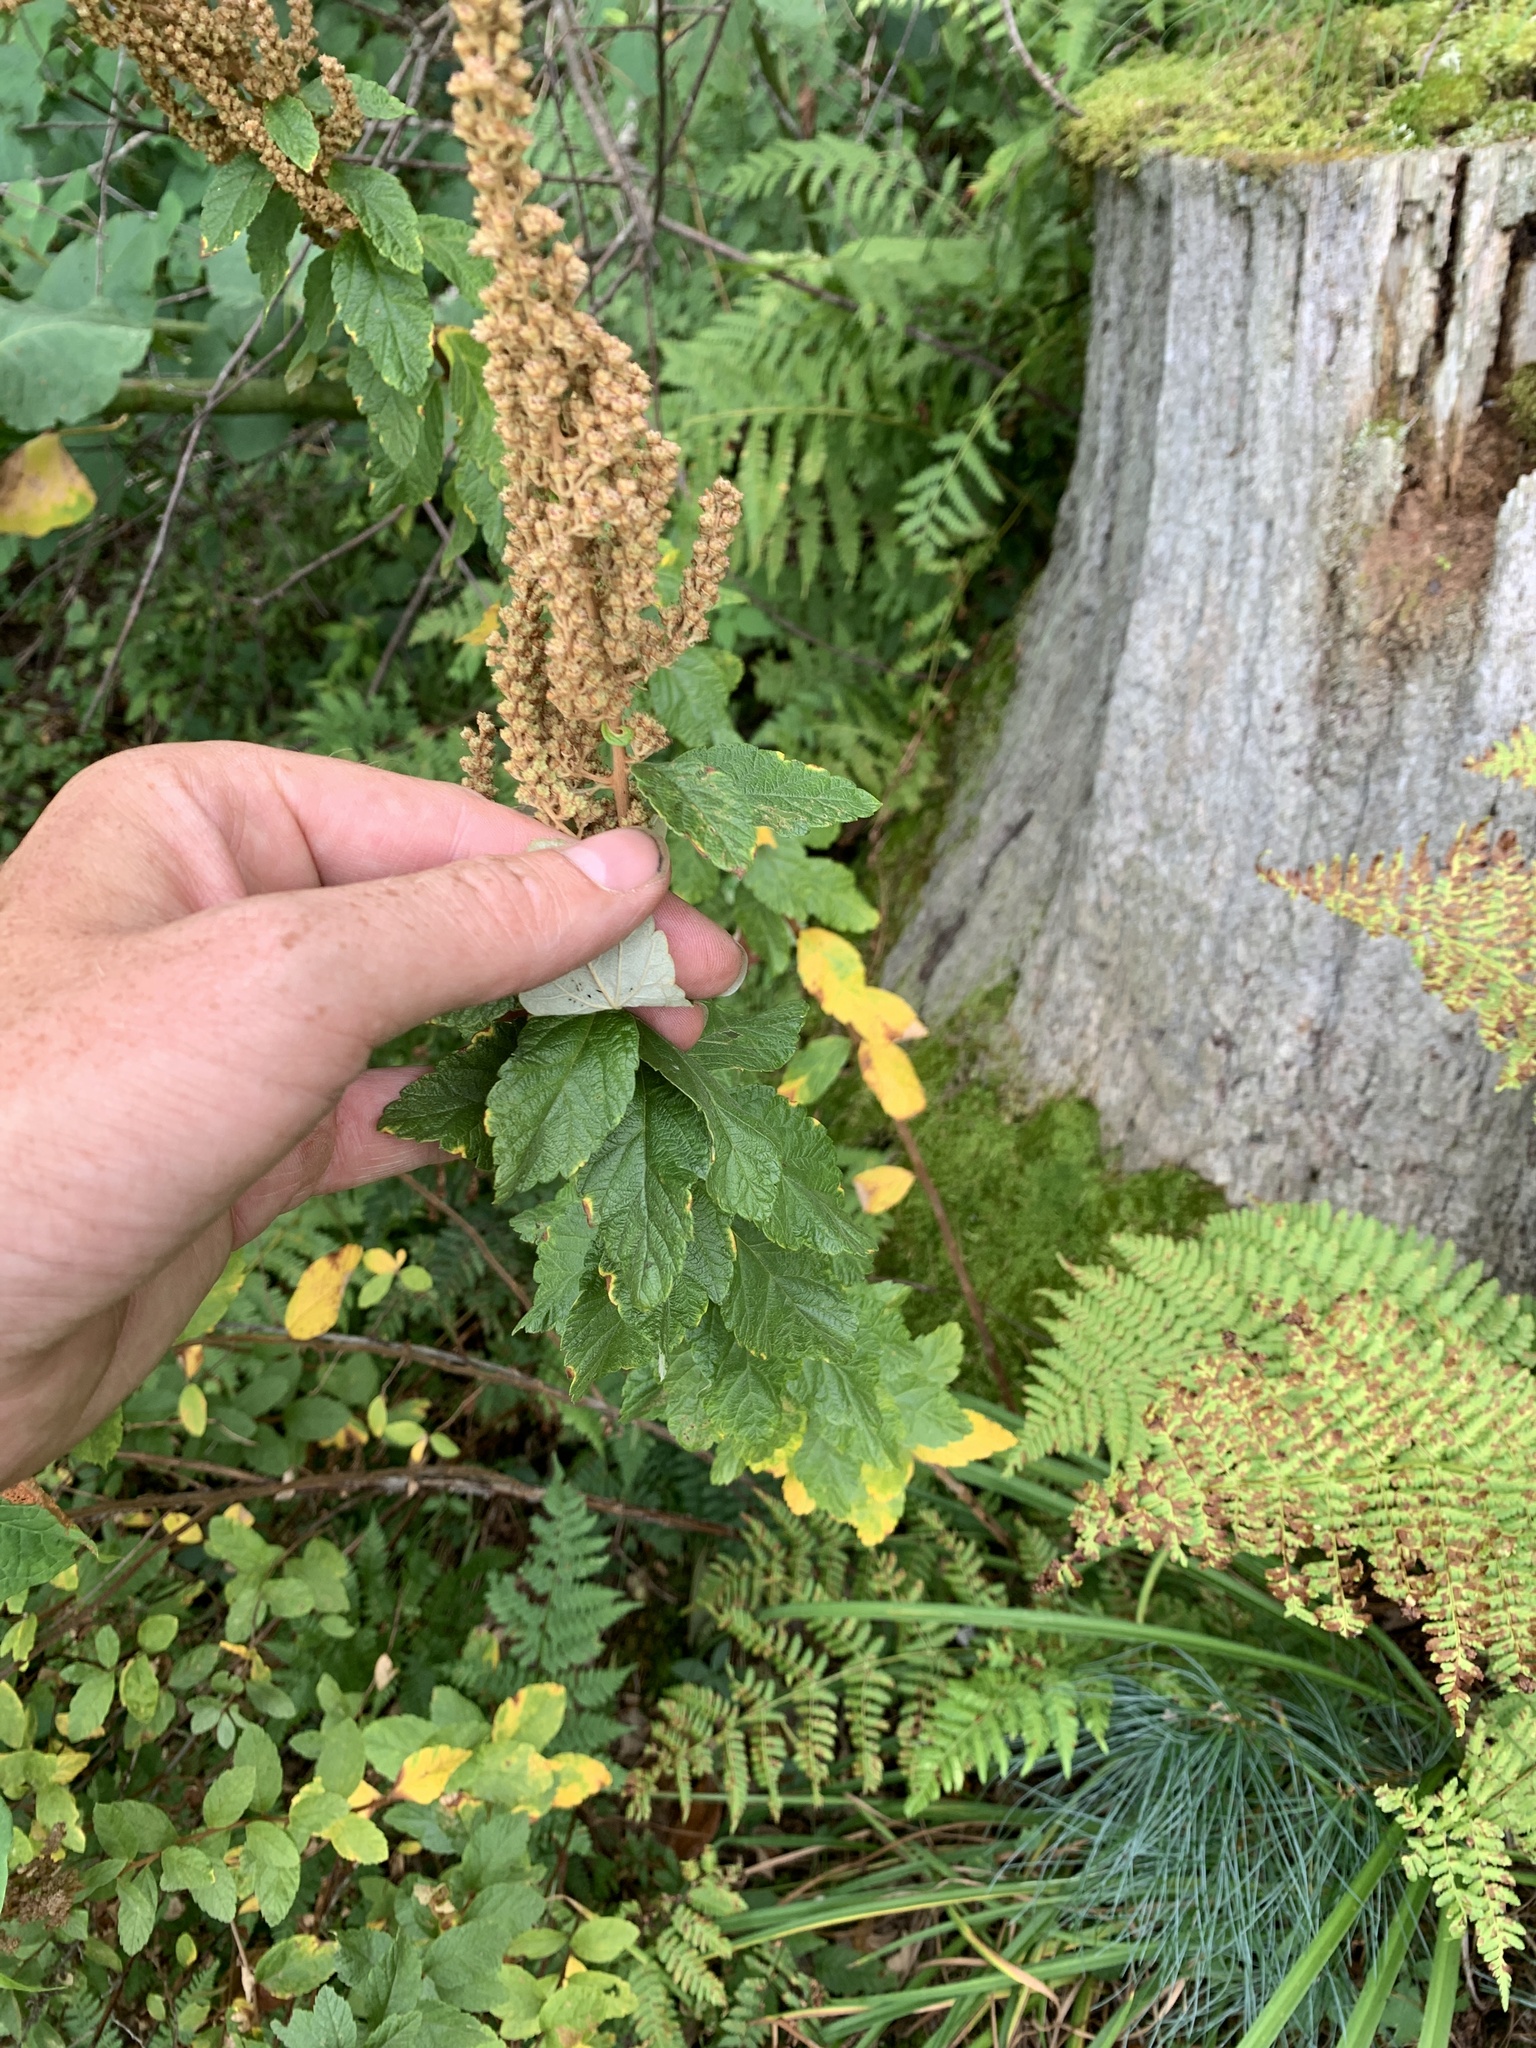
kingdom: Plantae
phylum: Tracheophyta
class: Magnoliopsida
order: Rosales
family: Rosaceae
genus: Spiraea
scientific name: Spiraea tomentosa
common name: Hardhack
